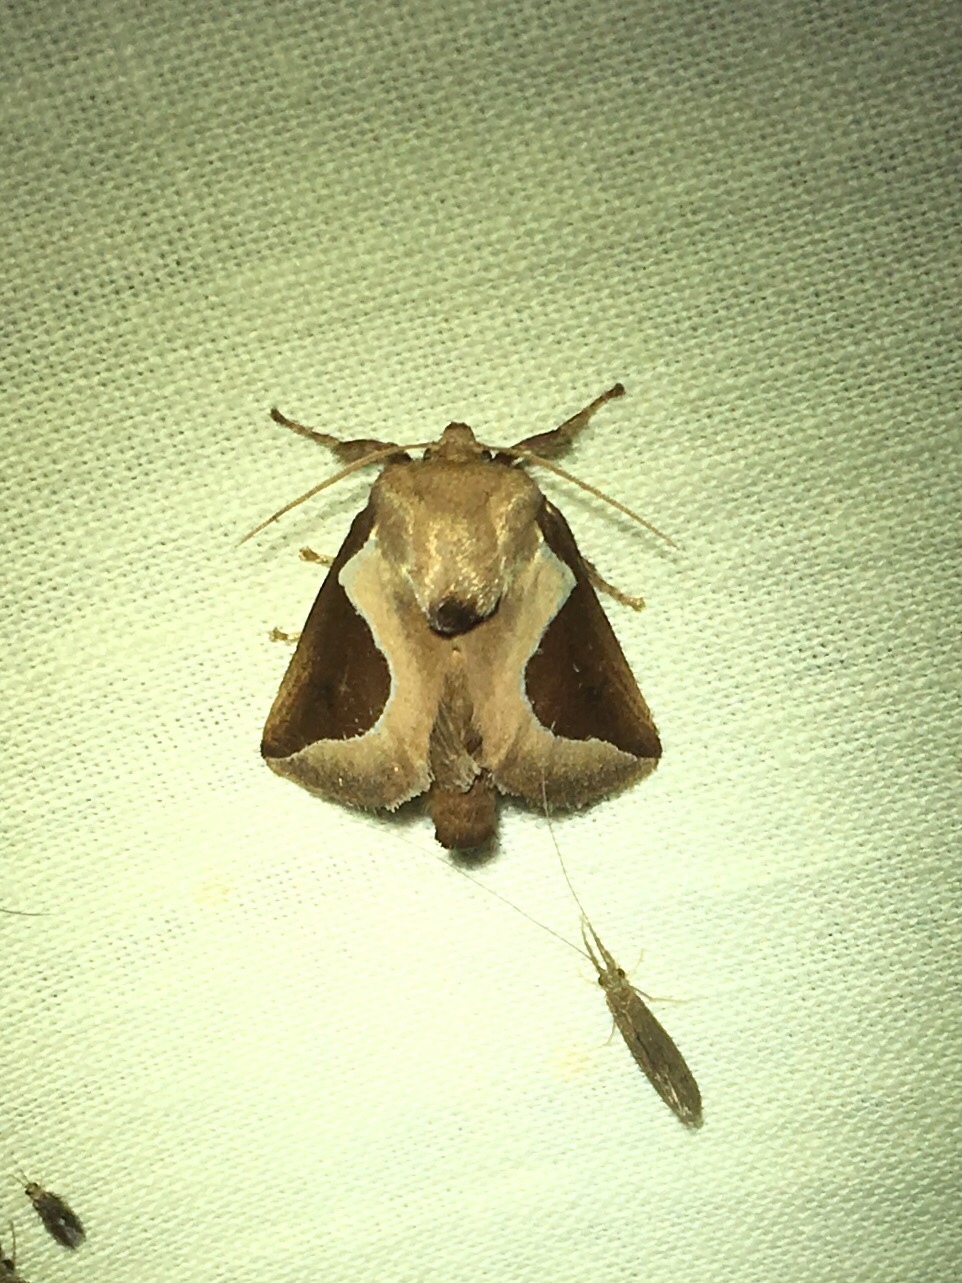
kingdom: Animalia
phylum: Arthropoda
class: Insecta
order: Lepidoptera
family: Limacodidae
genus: Prolimacodes
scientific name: Prolimacodes badia
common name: Skiff moth
